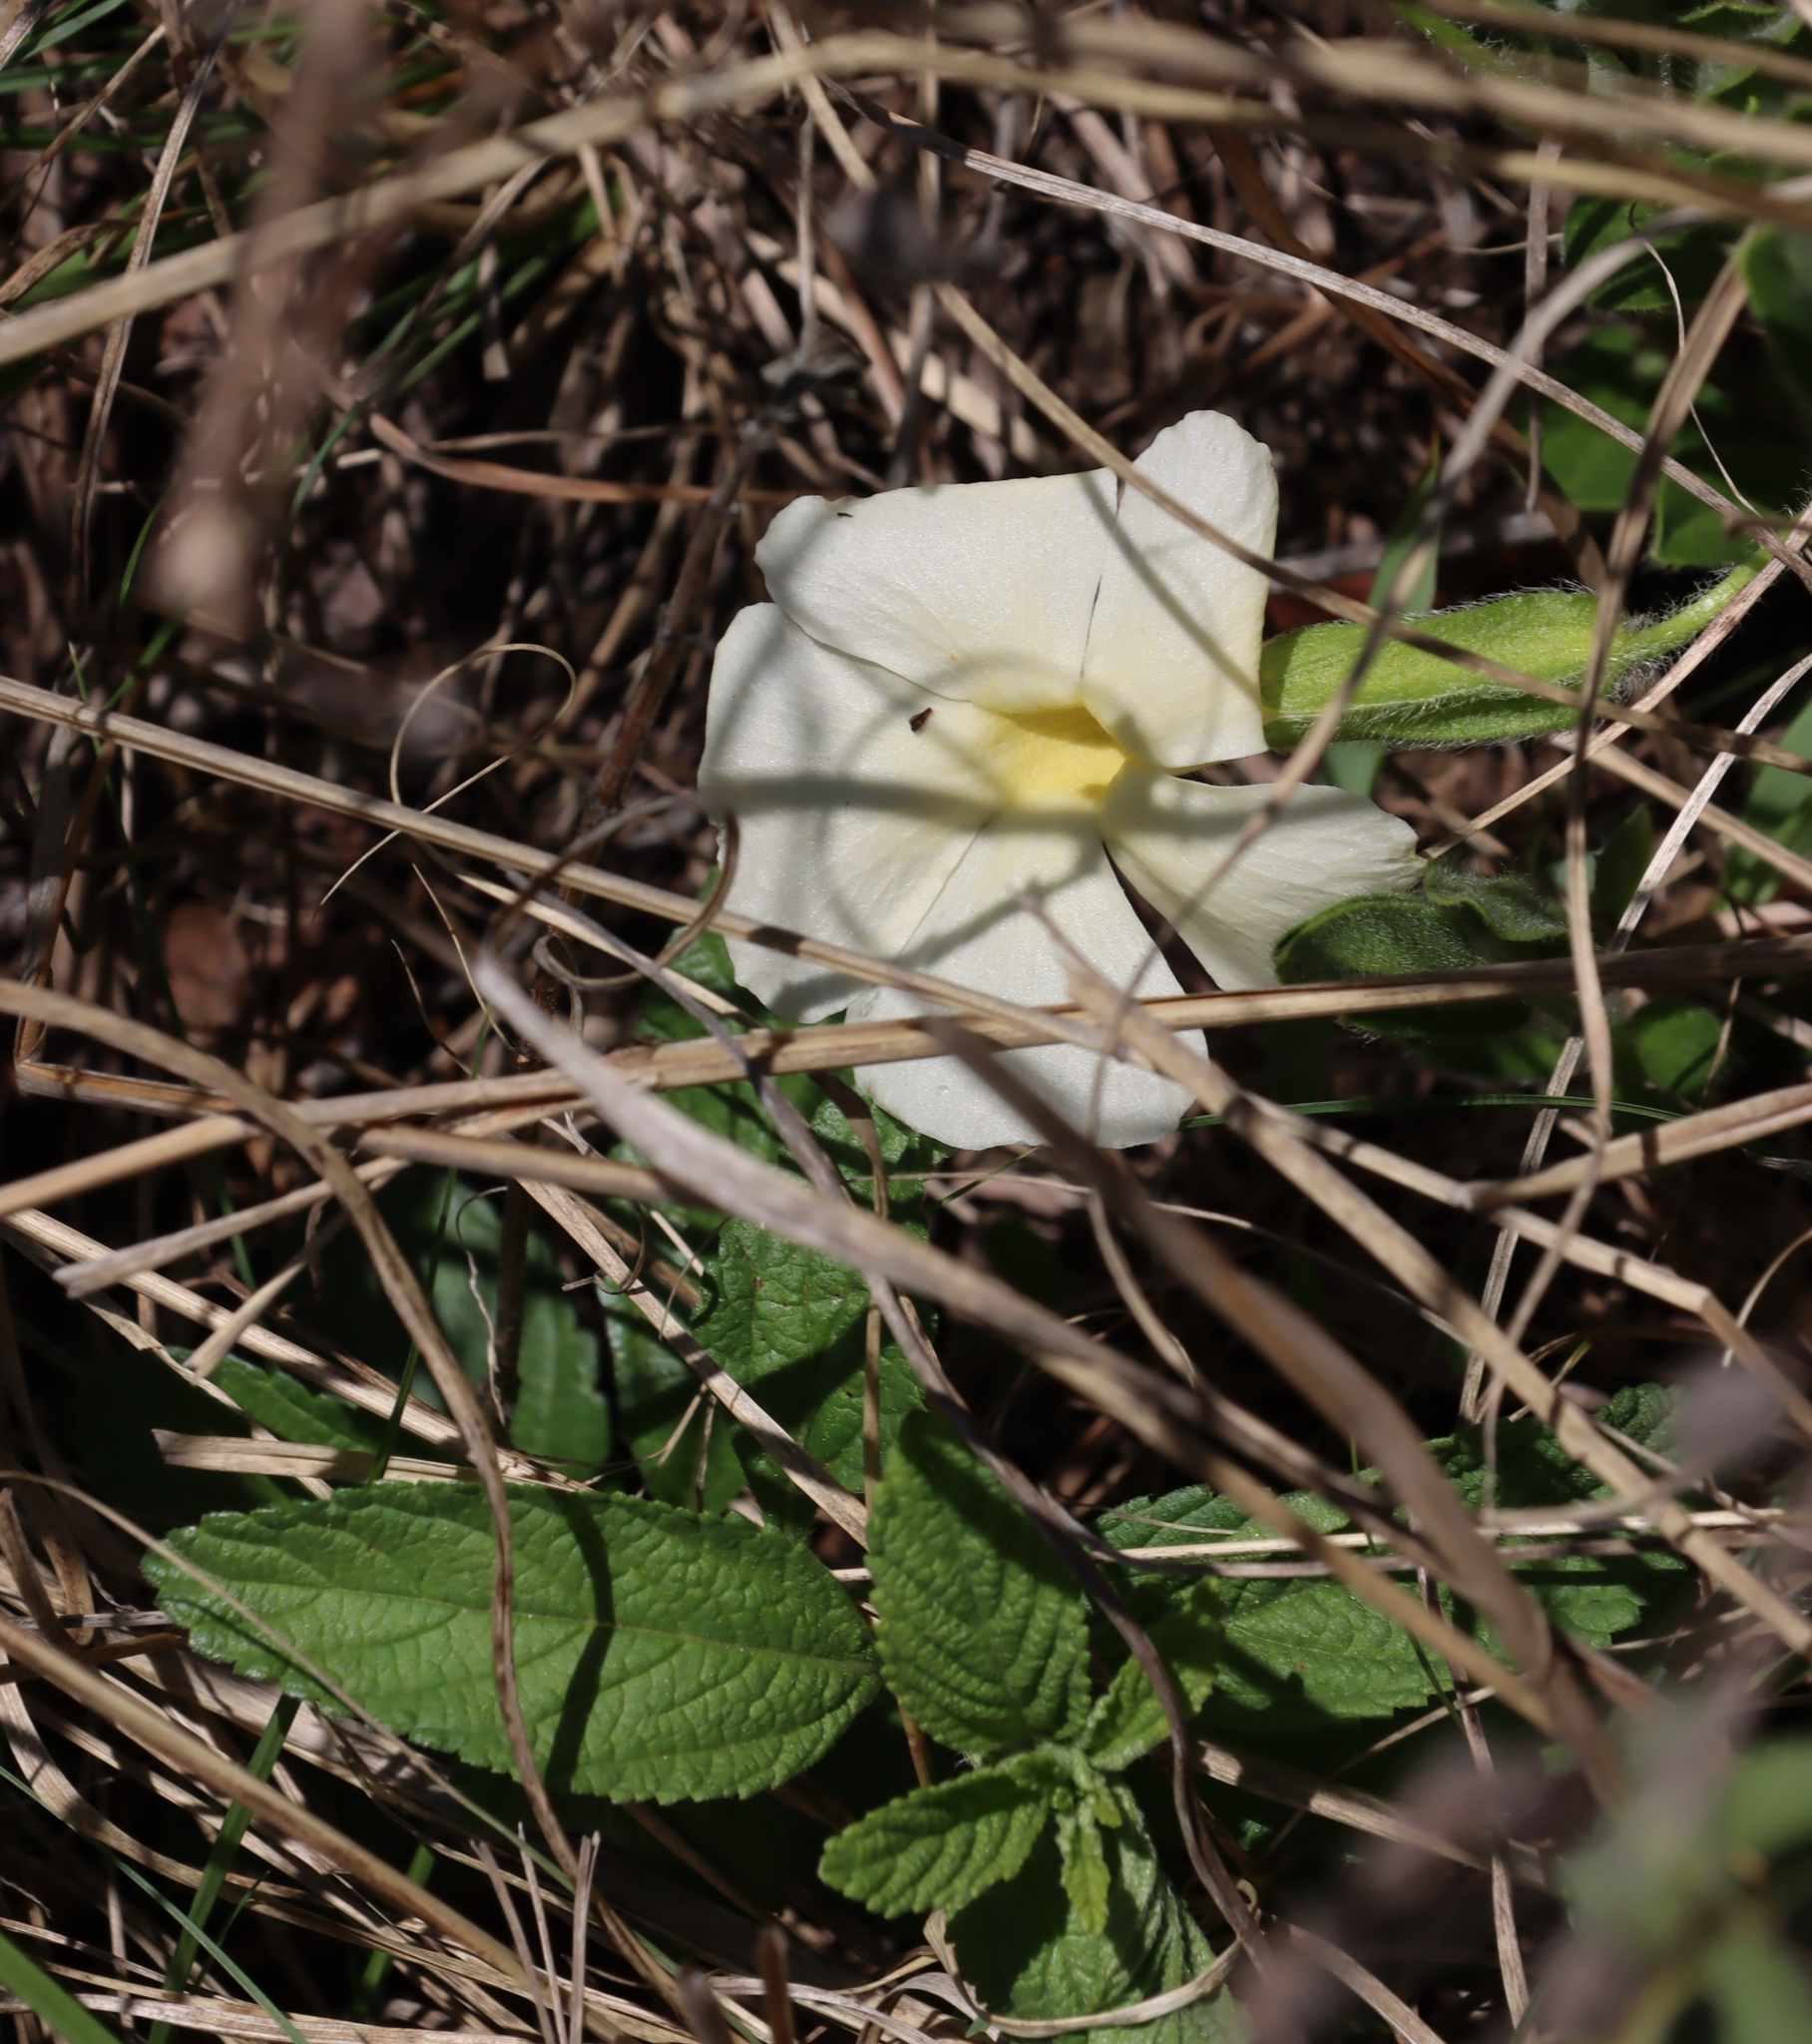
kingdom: Plantae
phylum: Tracheophyta
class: Magnoliopsida
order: Lamiales
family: Acanthaceae
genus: Thunbergia
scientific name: Thunbergia atriplicifolia
